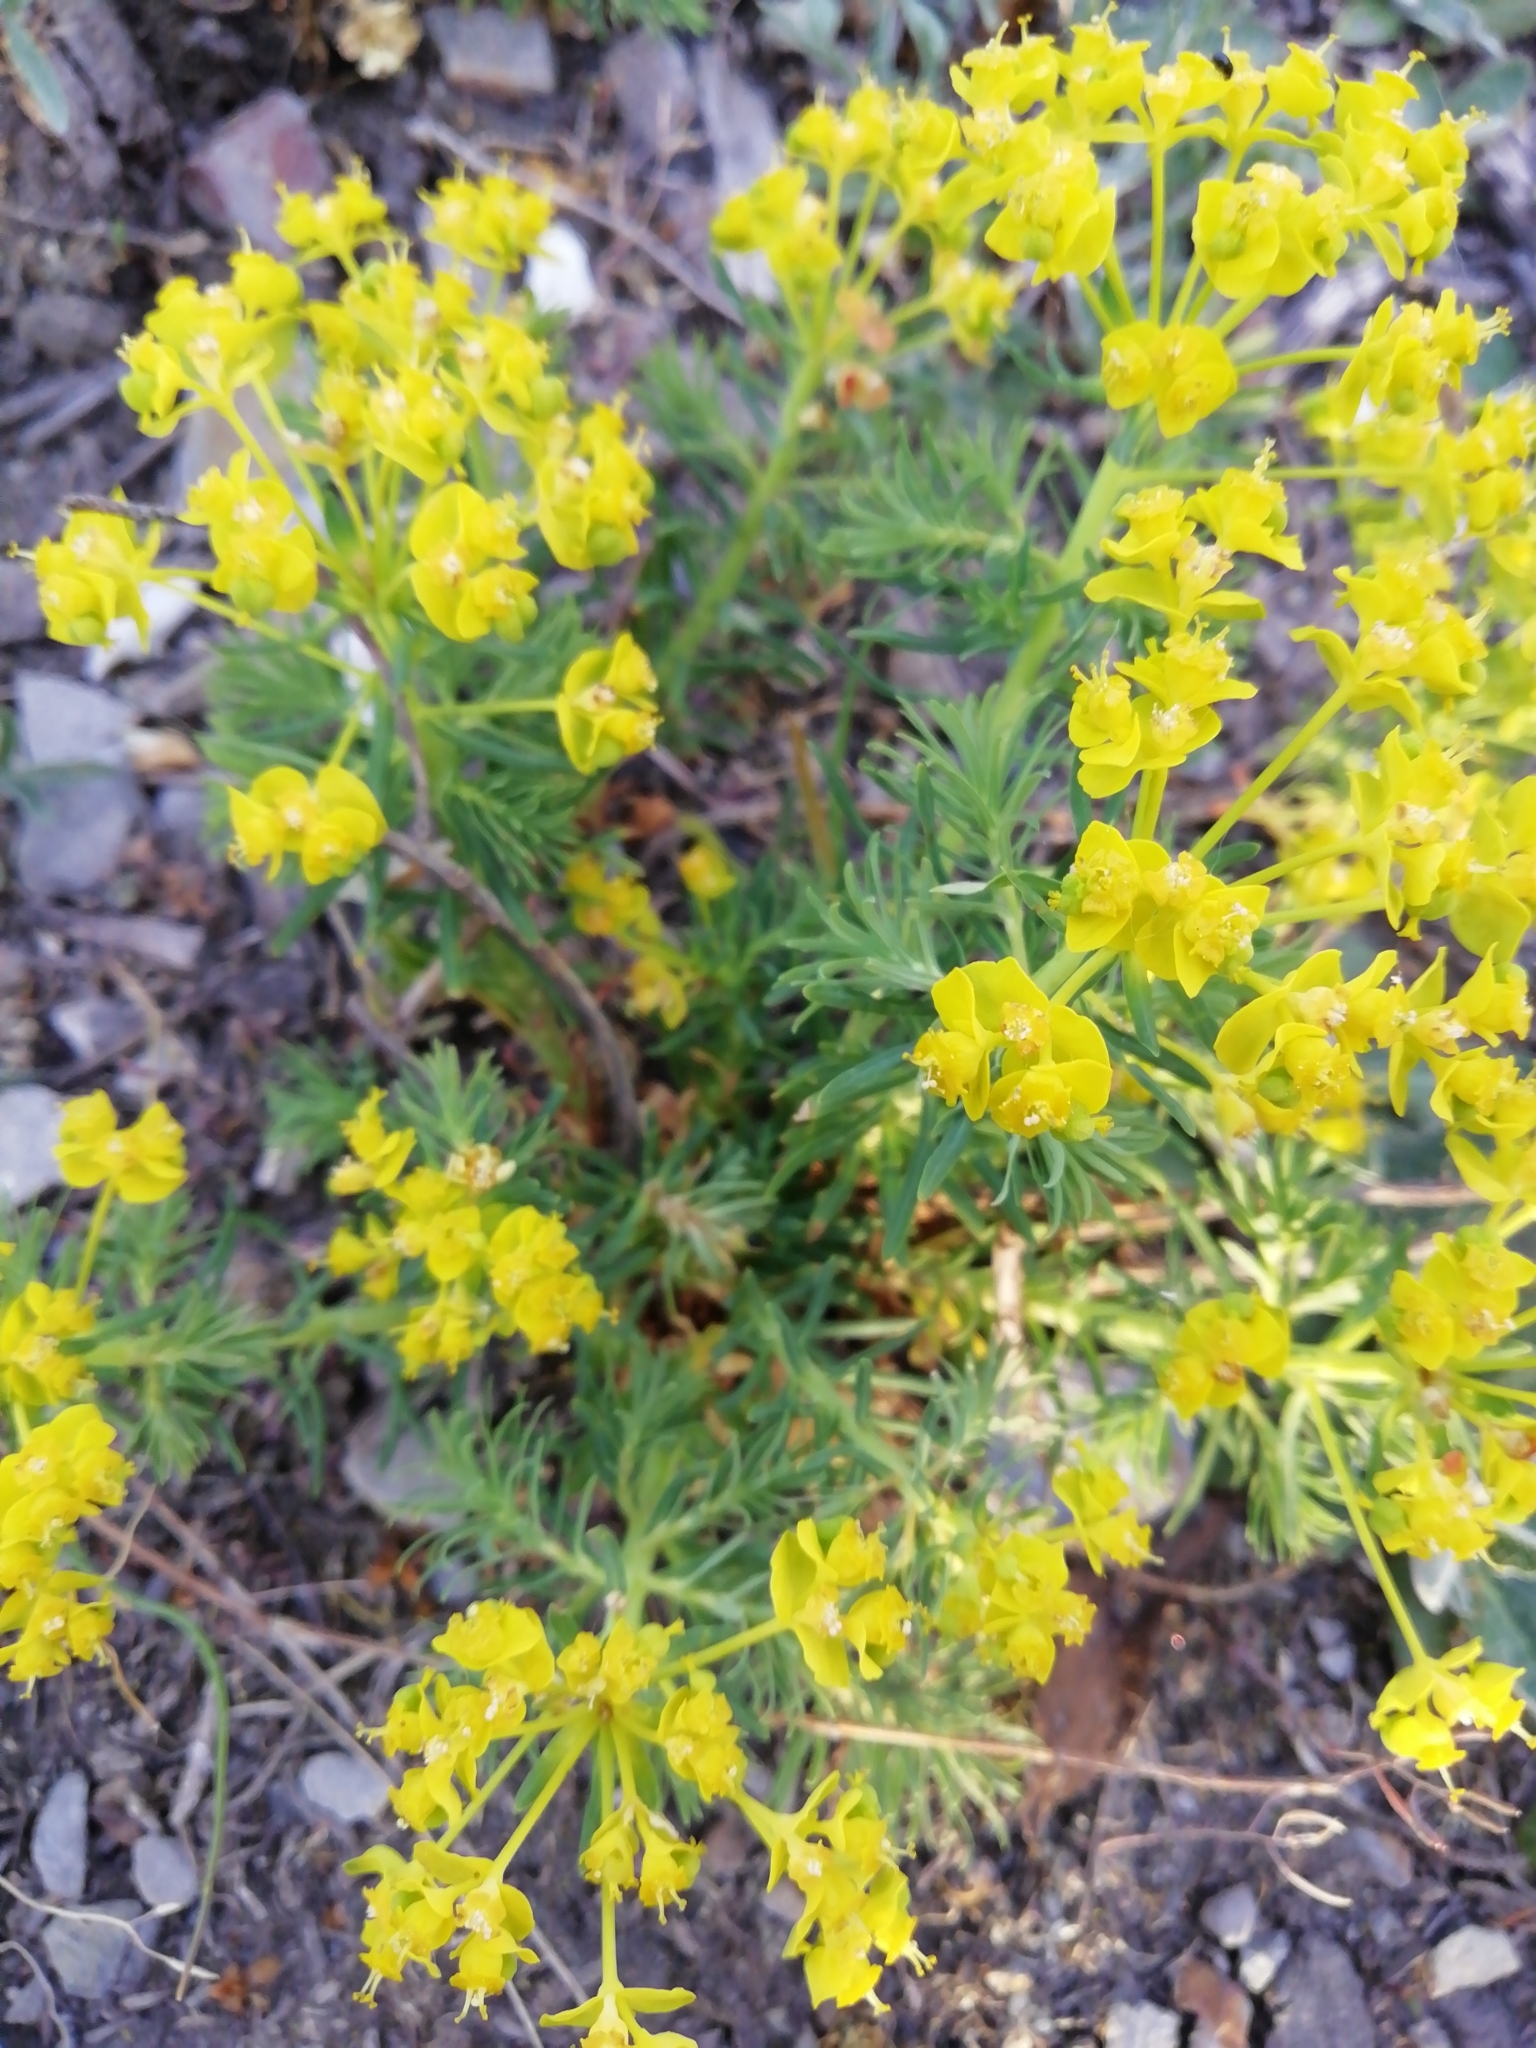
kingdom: Plantae
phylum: Tracheophyta
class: Magnoliopsida
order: Malpighiales
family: Euphorbiaceae
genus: Euphorbia
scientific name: Euphorbia cyparissias
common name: Cypress spurge
